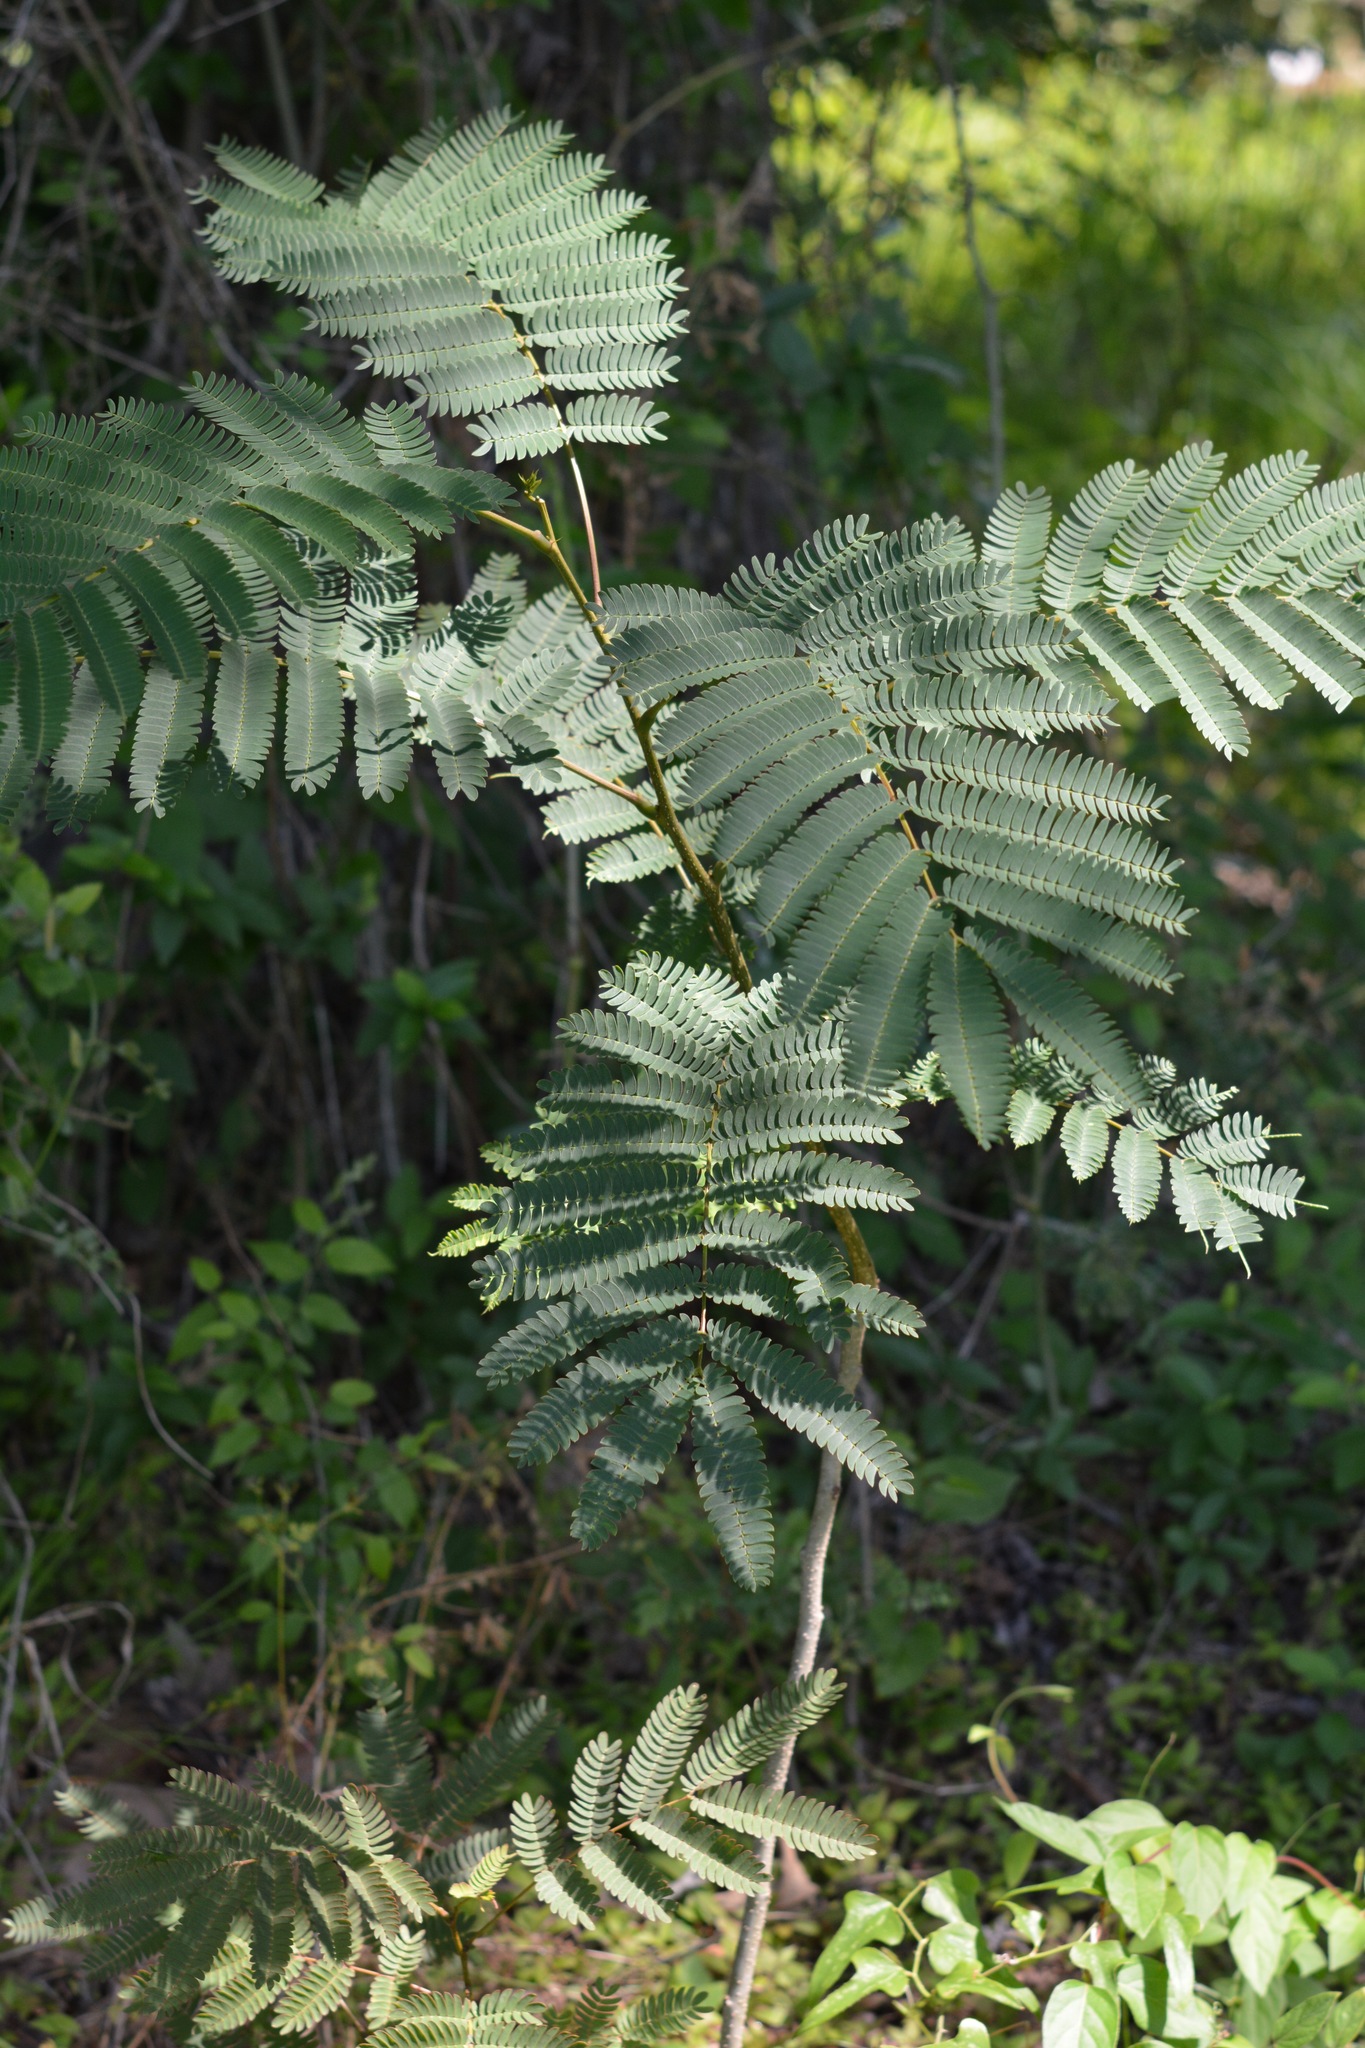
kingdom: Plantae
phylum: Tracheophyta
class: Magnoliopsida
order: Fabales
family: Fabaceae
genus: Albizia
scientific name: Albizia julibrissin
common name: Silktree
